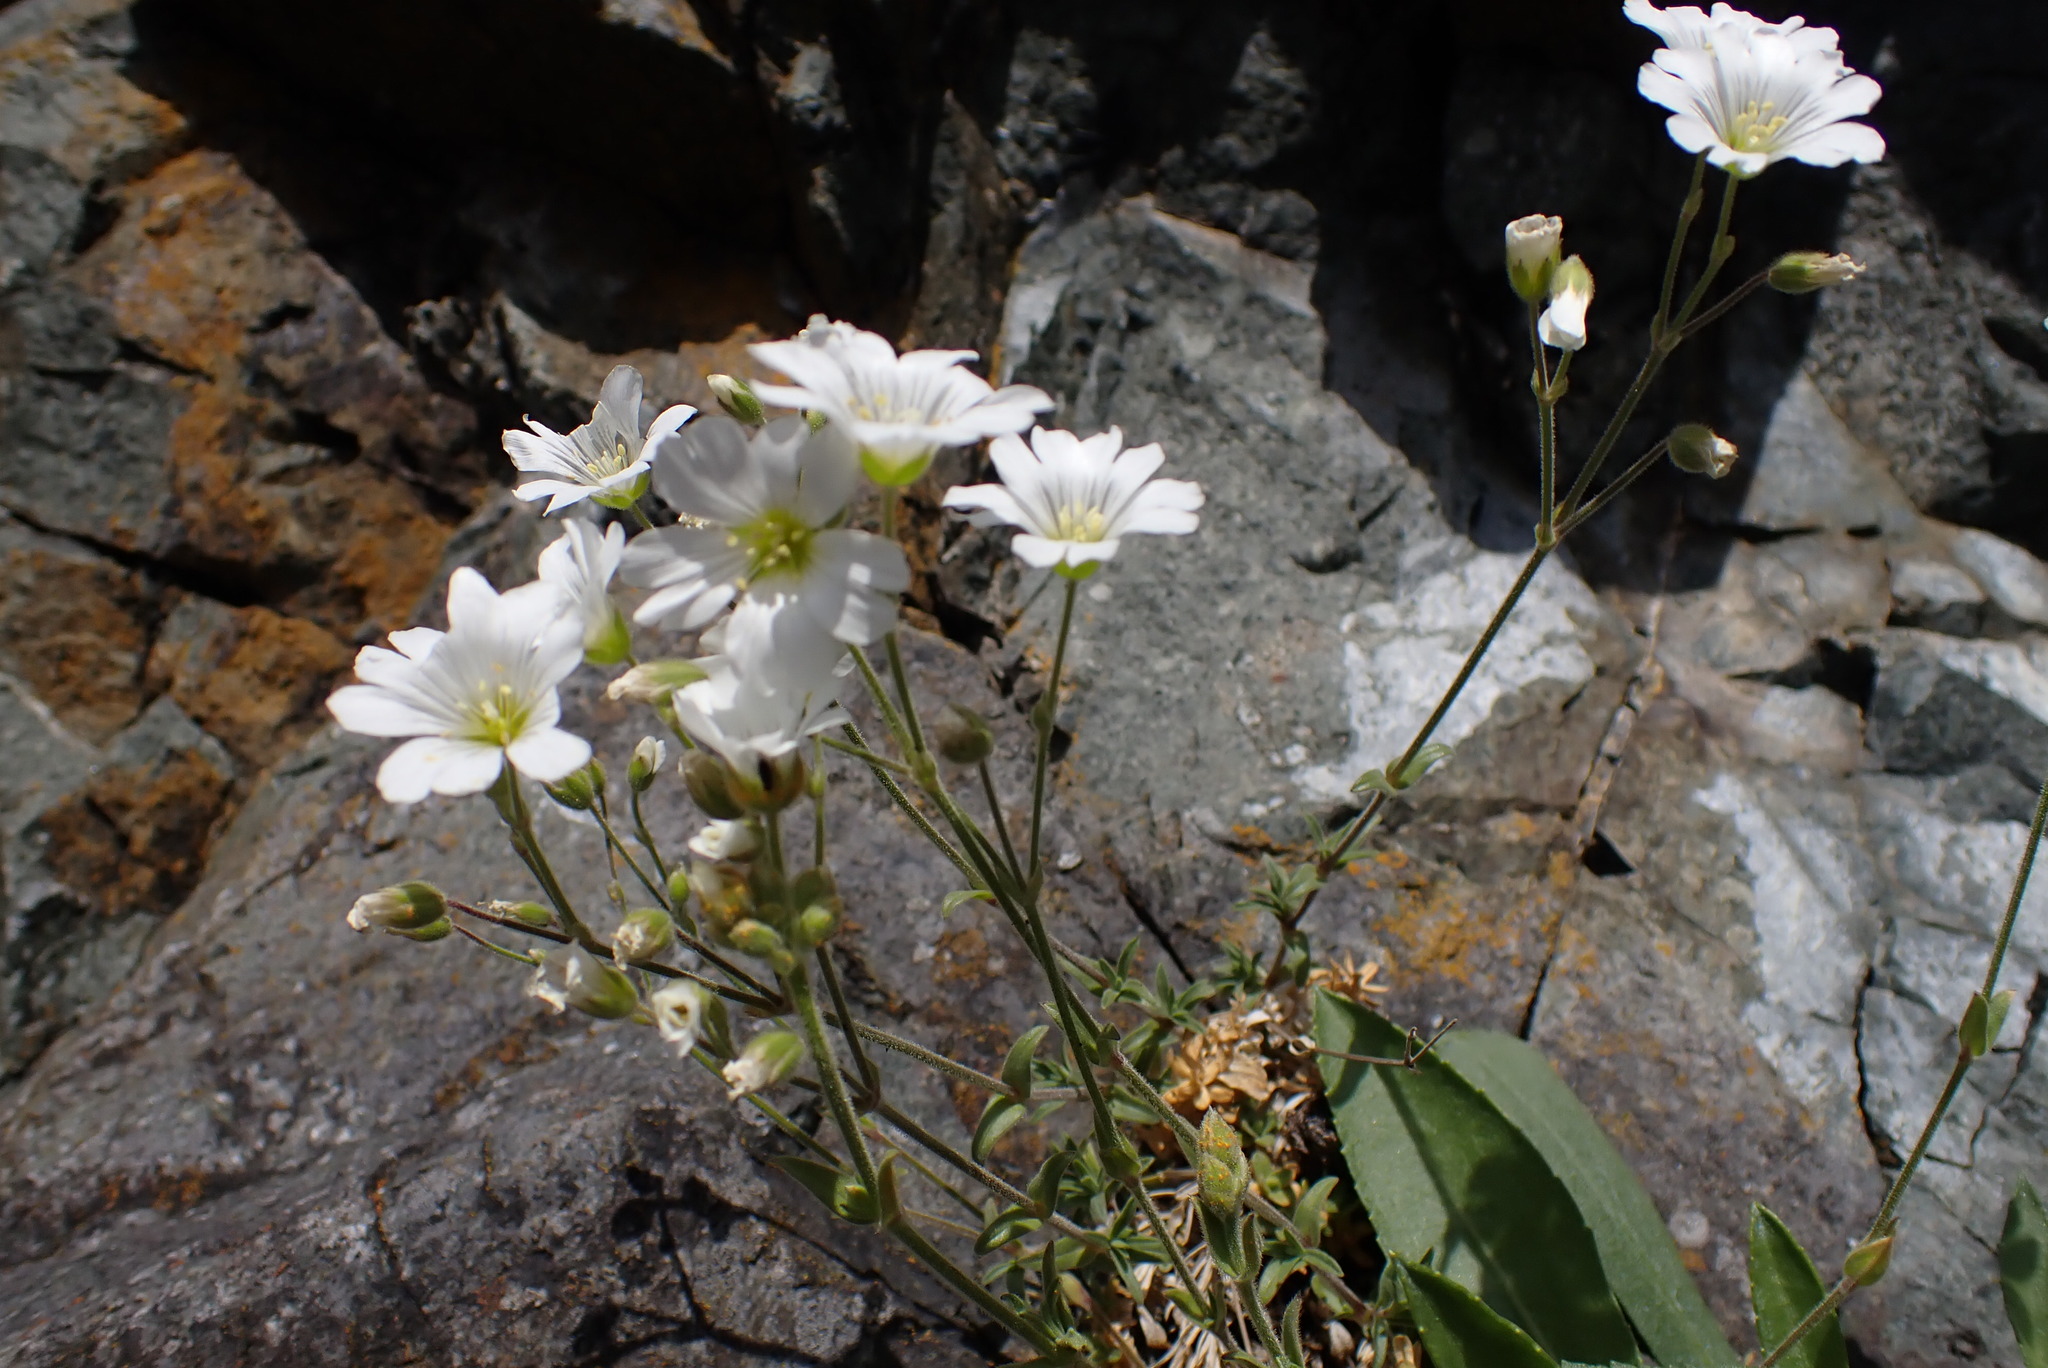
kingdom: Plantae
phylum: Tracheophyta
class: Magnoliopsida
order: Caryophyllales
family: Caryophyllaceae
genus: Cerastium
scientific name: Cerastium arvense
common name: Field mouse-ear
